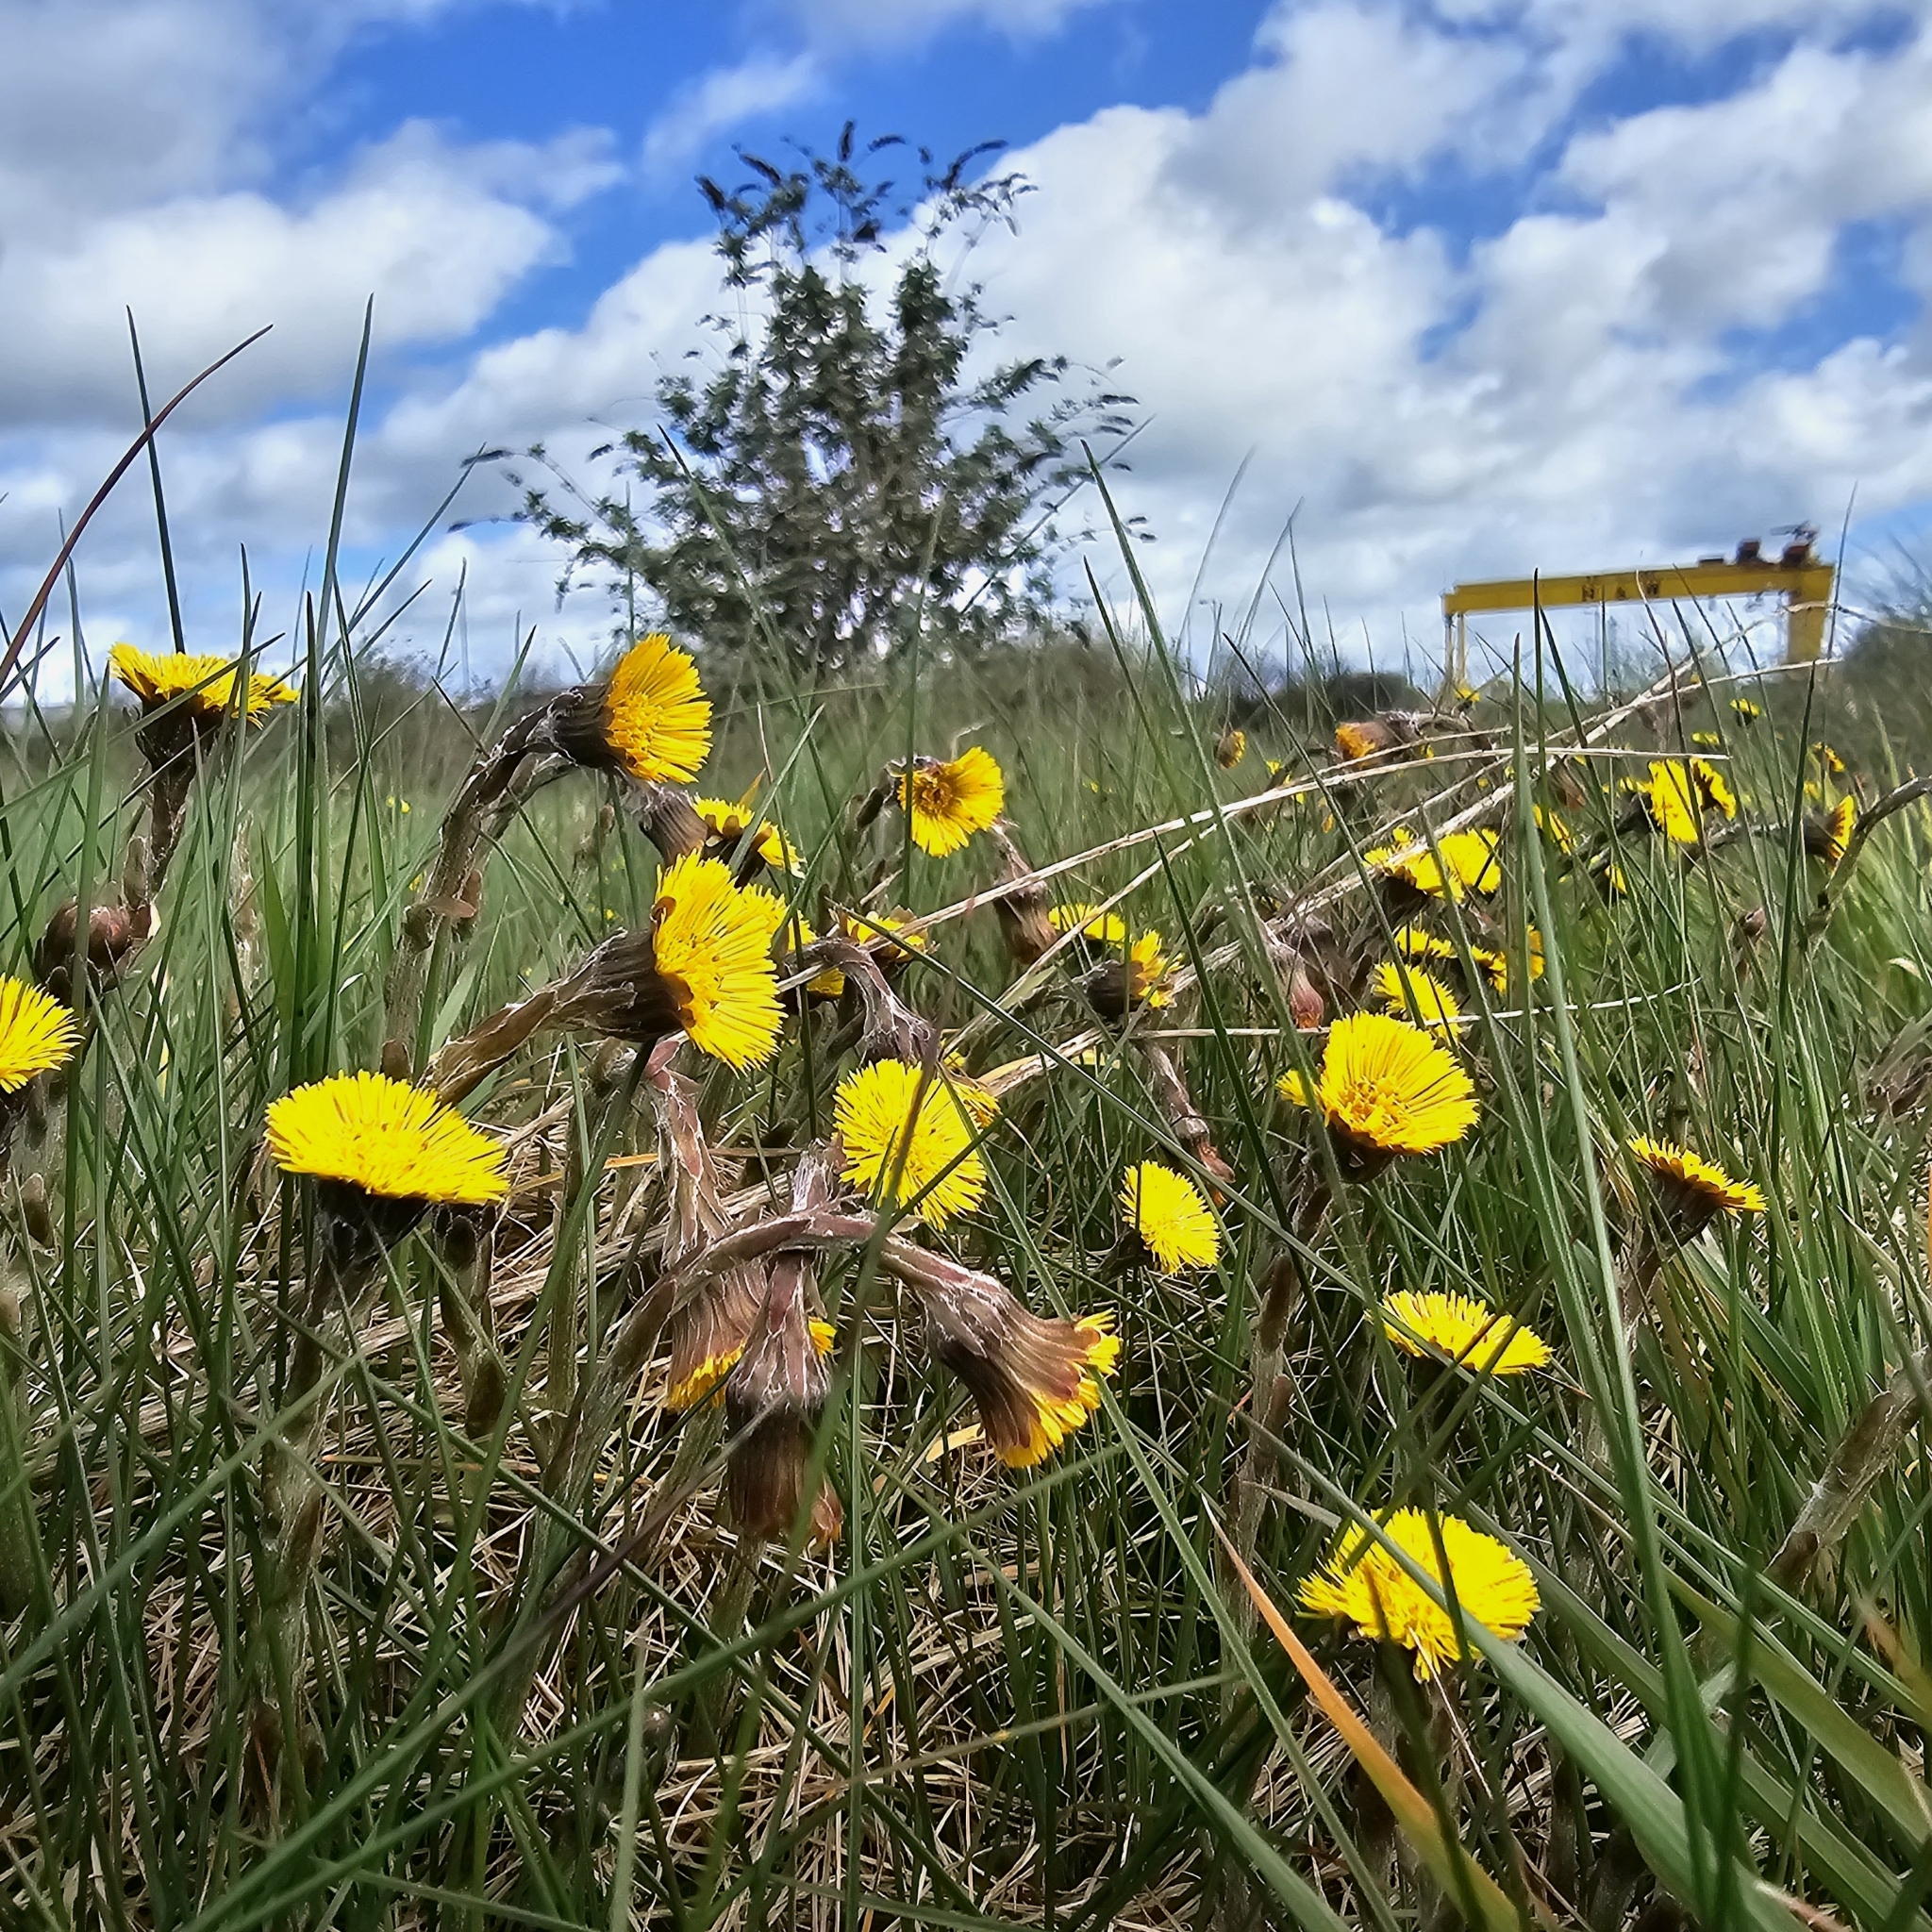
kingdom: Plantae
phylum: Tracheophyta
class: Magnoliopsida
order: Asterales
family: Asteraceae
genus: Tussilago
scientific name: Tussilago farfara
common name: Coltsfoot
